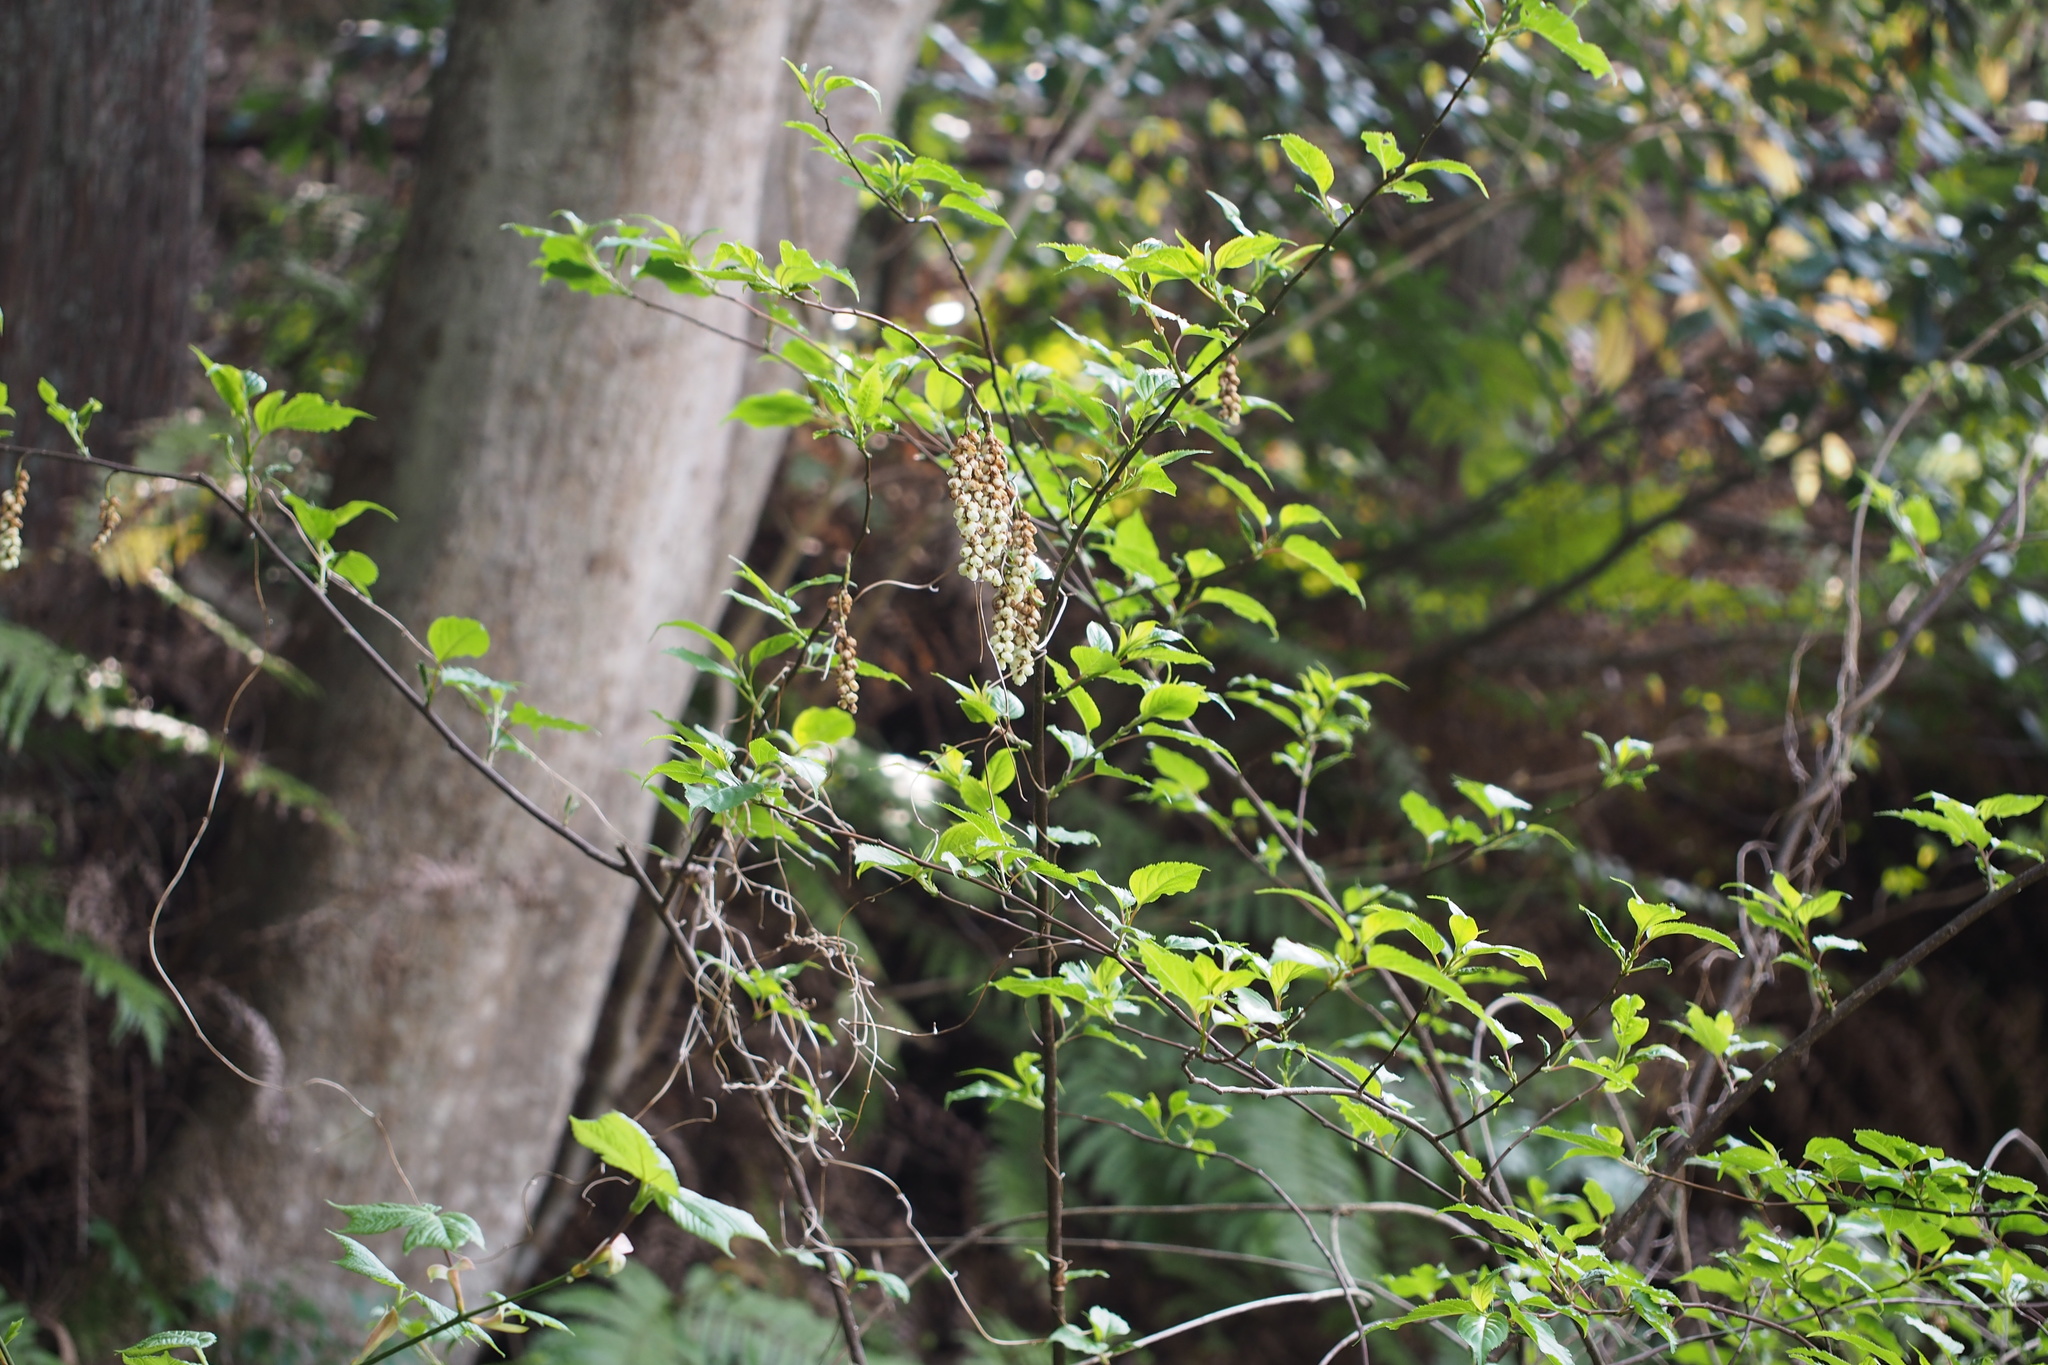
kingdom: Plantae
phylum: Tracheophyta
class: Magnoliopsida
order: Crossosomatales
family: Stachyuraceae
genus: Stachyurus
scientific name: Stachyurus praecox
